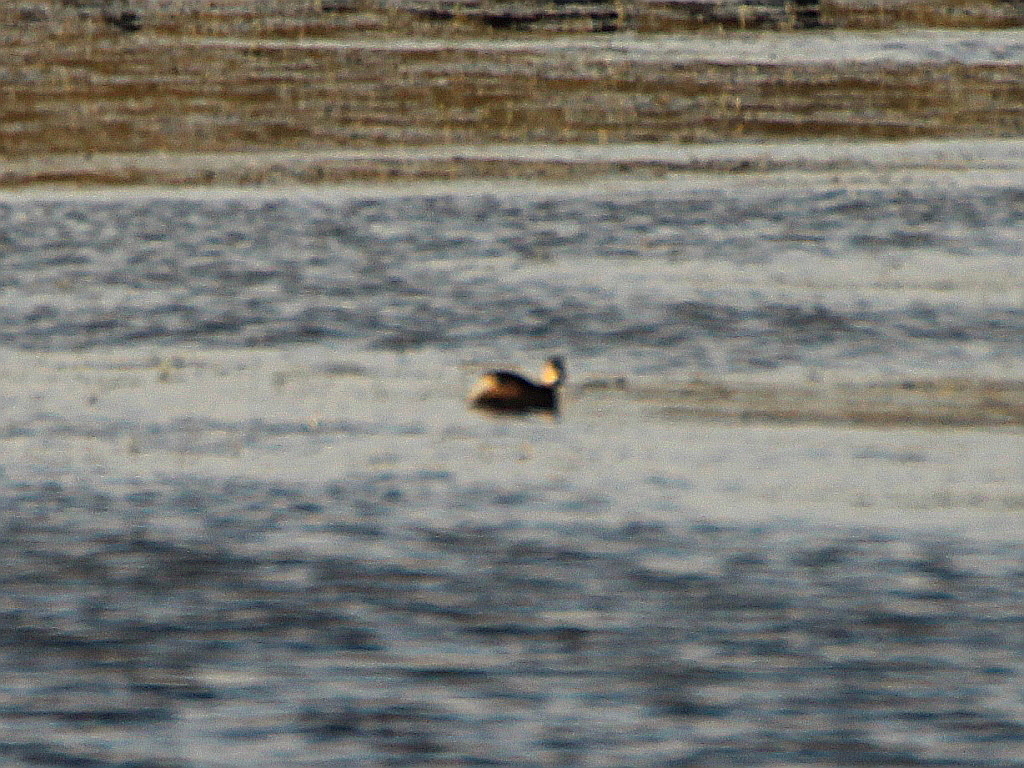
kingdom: Animalia
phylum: Chordata
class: Aves
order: Podicipediformes
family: Podicipedidae
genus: Tachybaptus
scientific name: Tachybaptus ruficollis
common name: Little grebe
